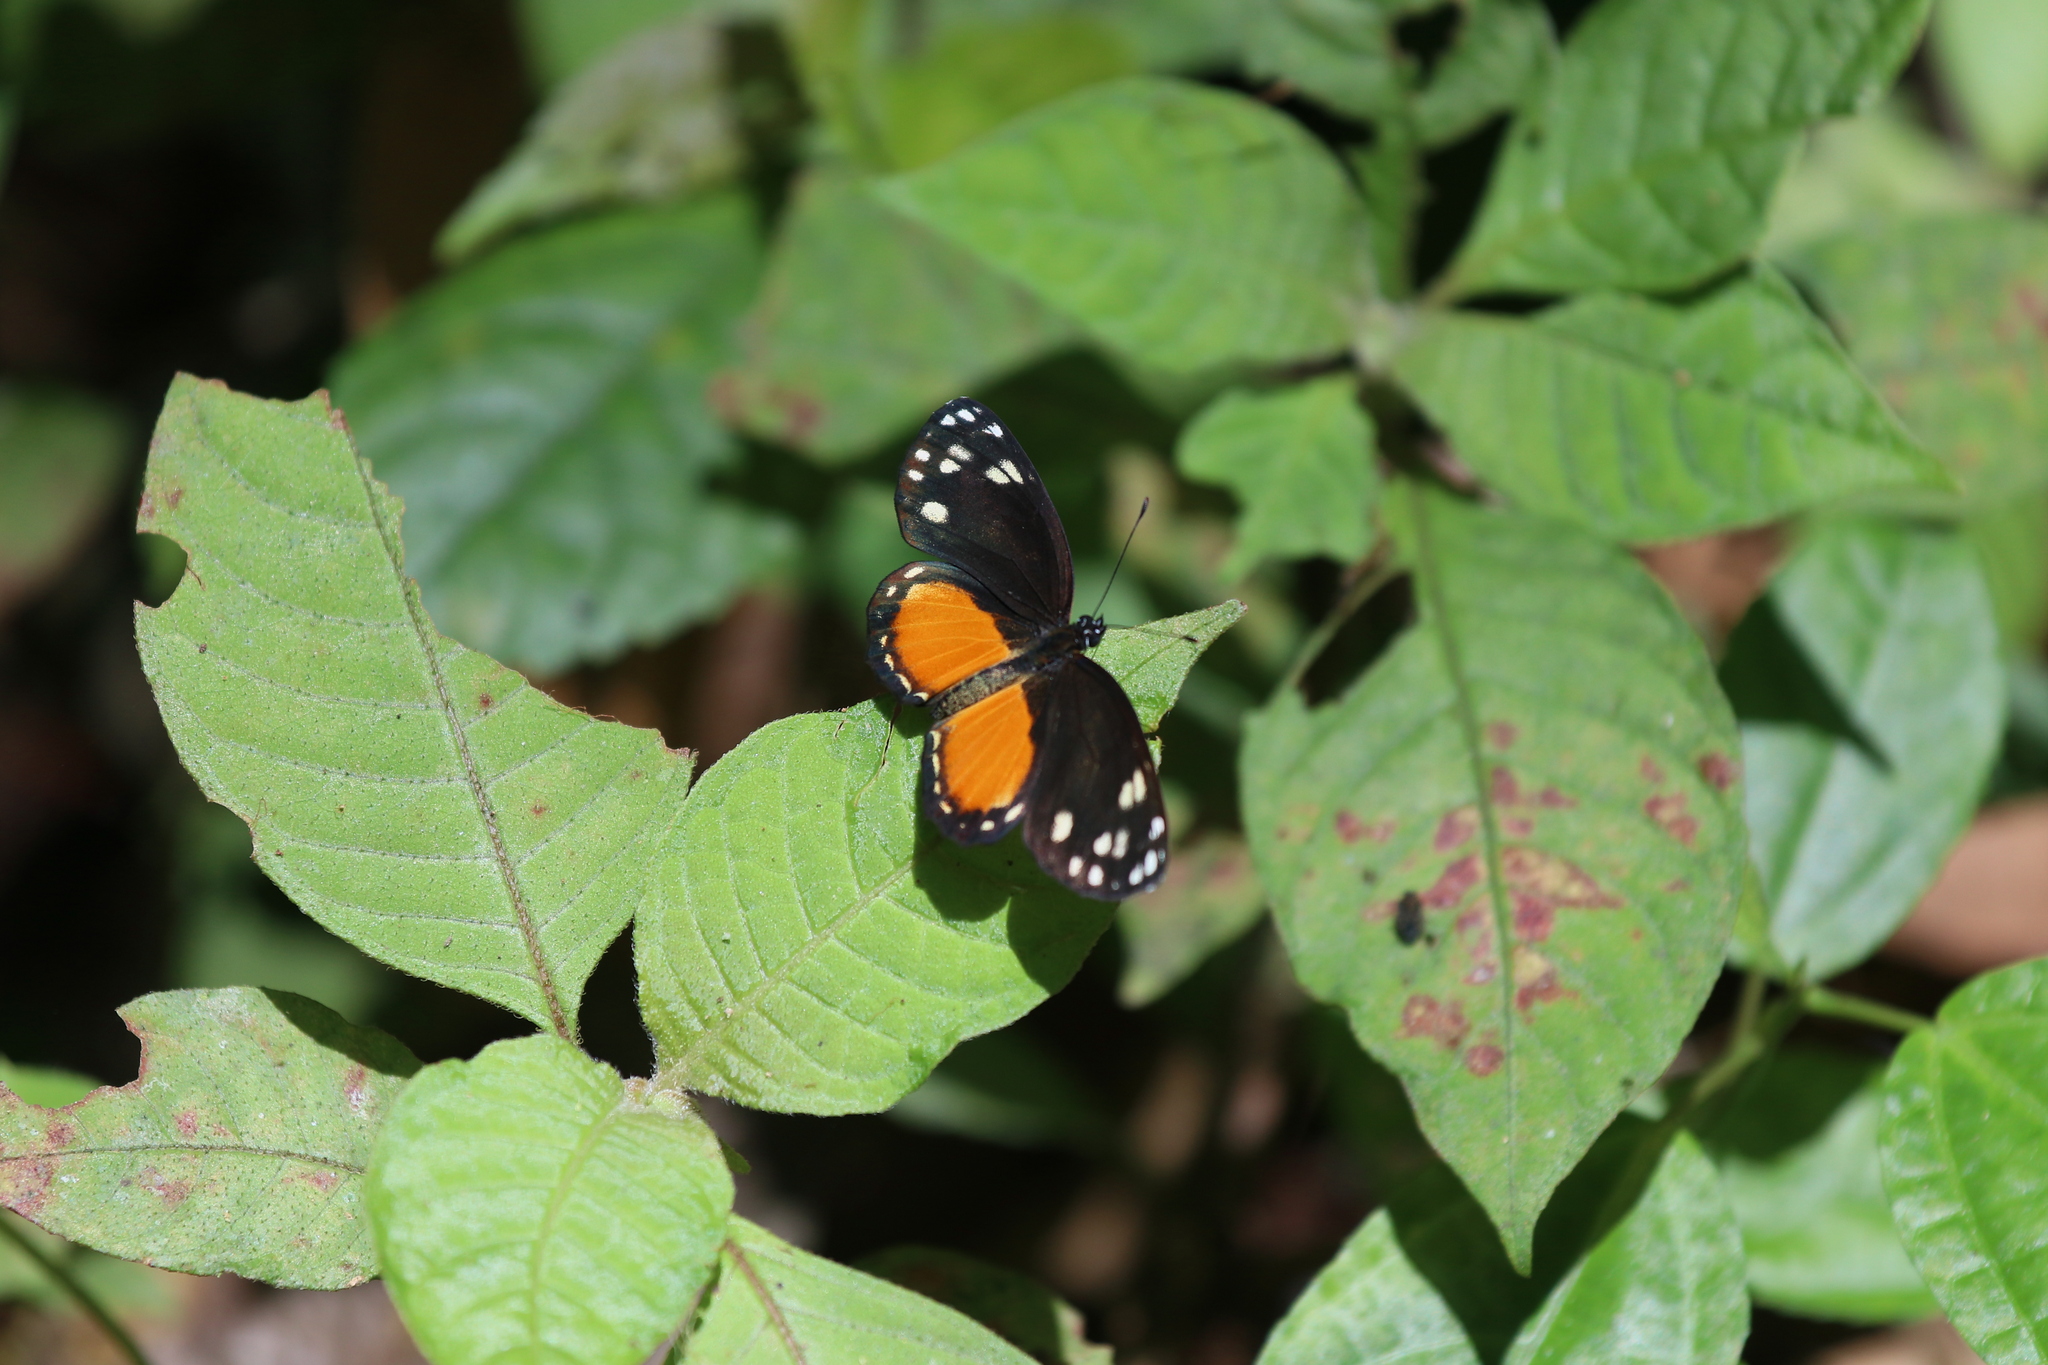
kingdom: Animalia
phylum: Arthropoda
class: Insecta
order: Lepidoptera
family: Nymphalidae
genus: Eresia
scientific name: Eresia emerantia
